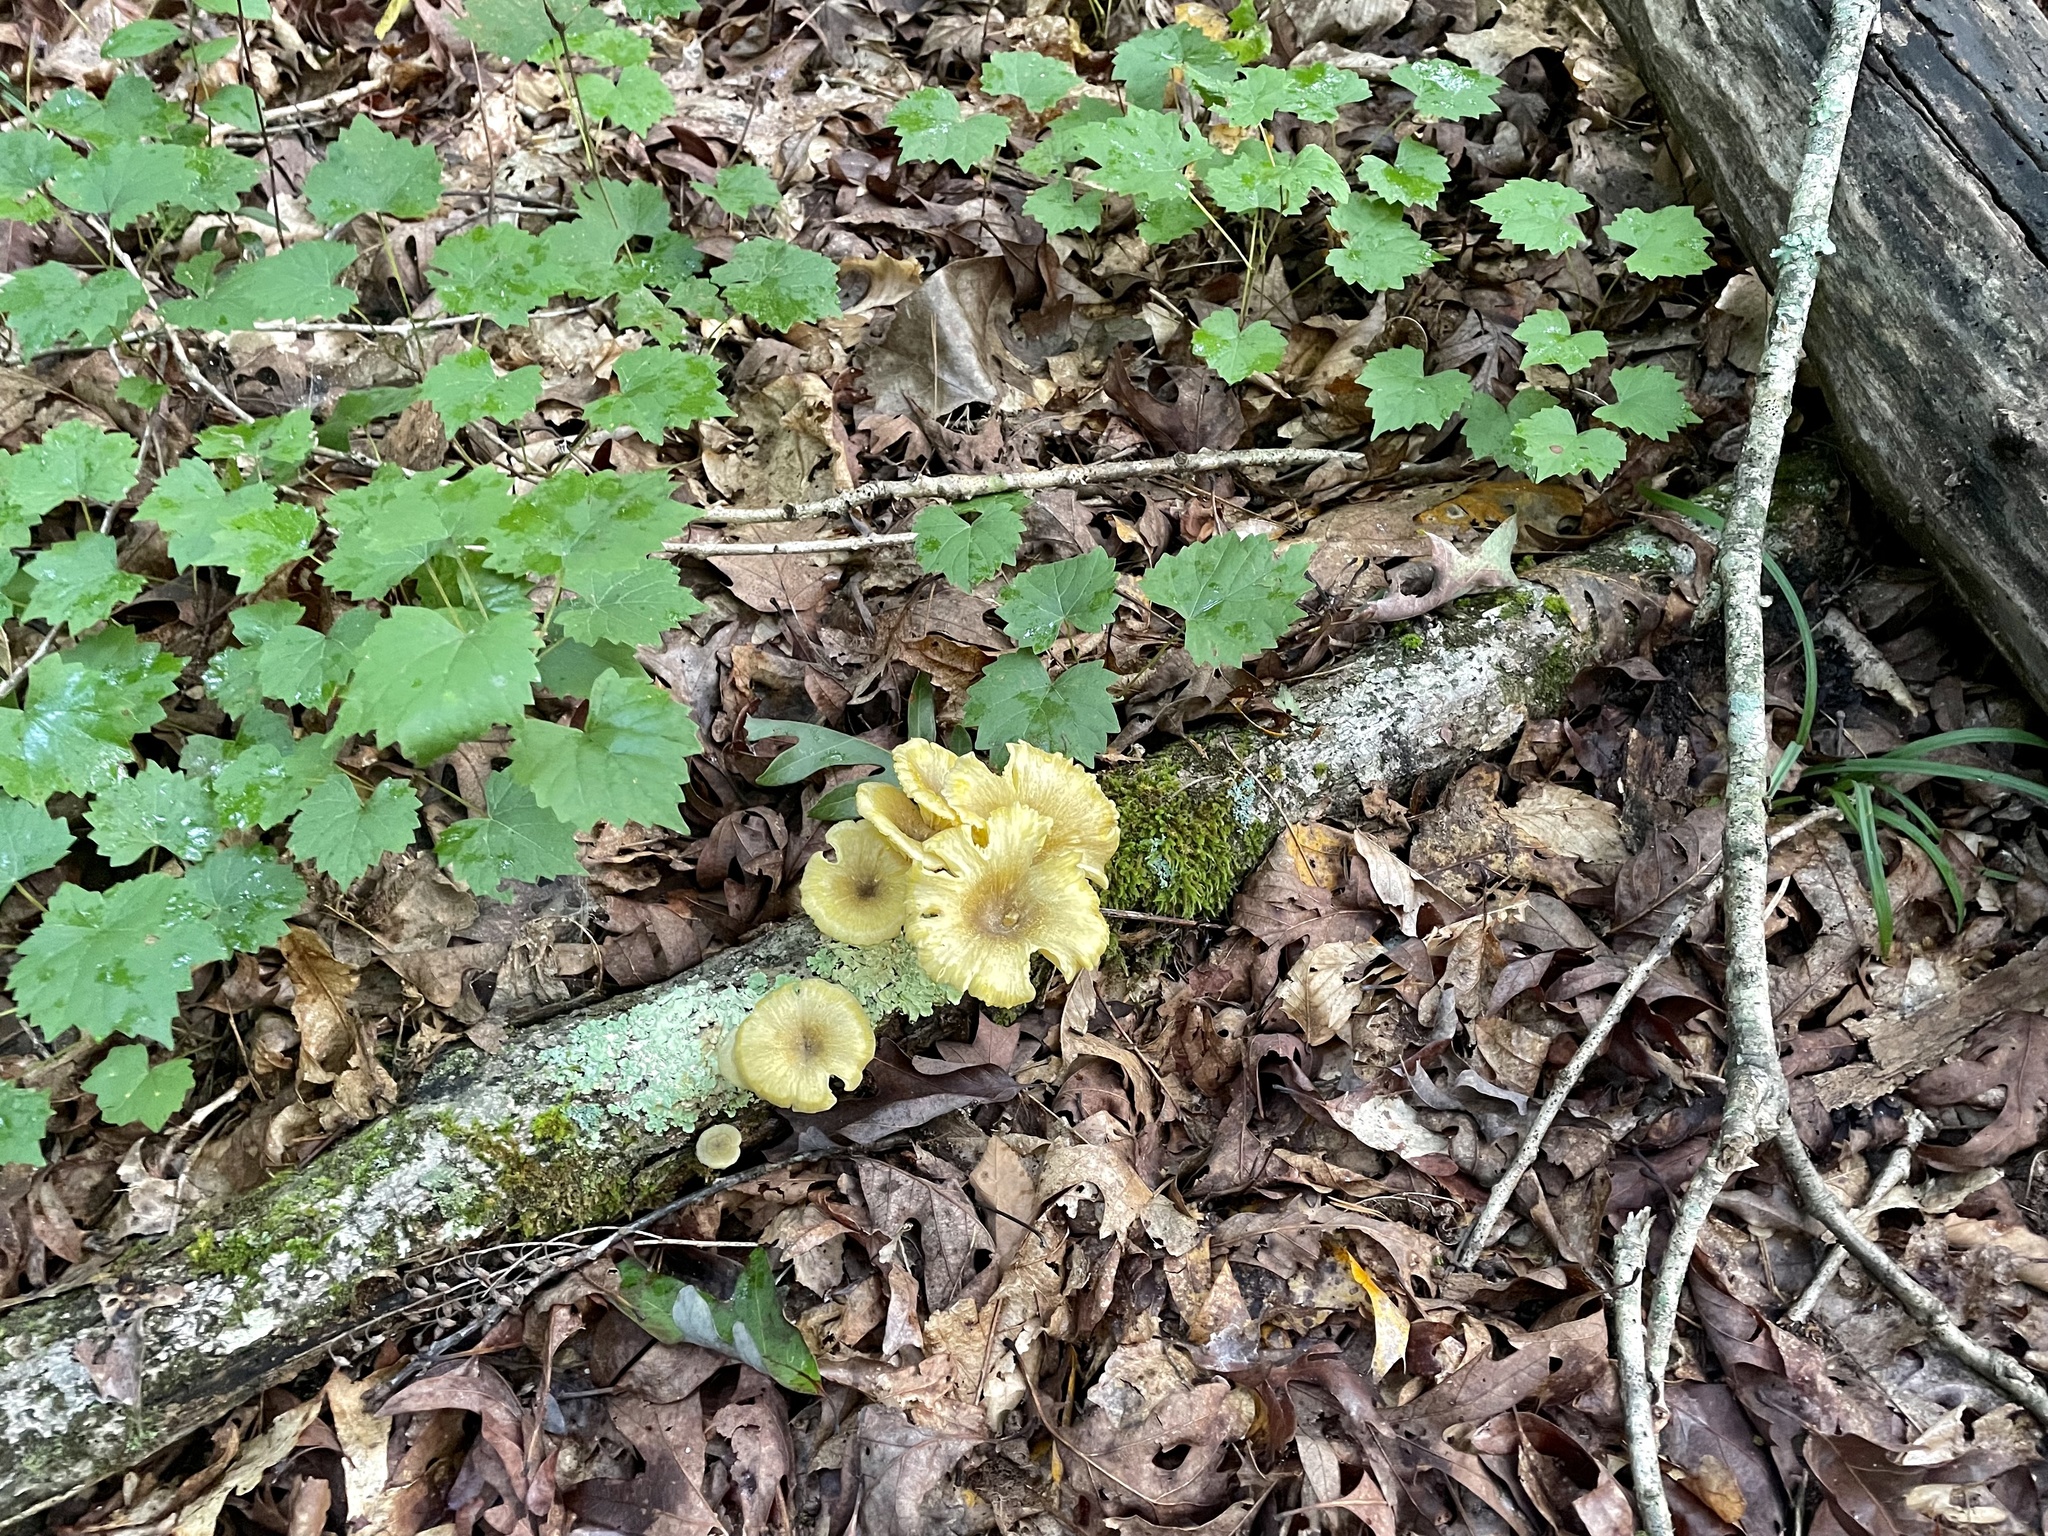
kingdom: Fungi
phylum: Basidiomycota
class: Agaricomycetes
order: Agaricales
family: Marasmiaceae
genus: Gerronema
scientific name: Gerronema strombodes
